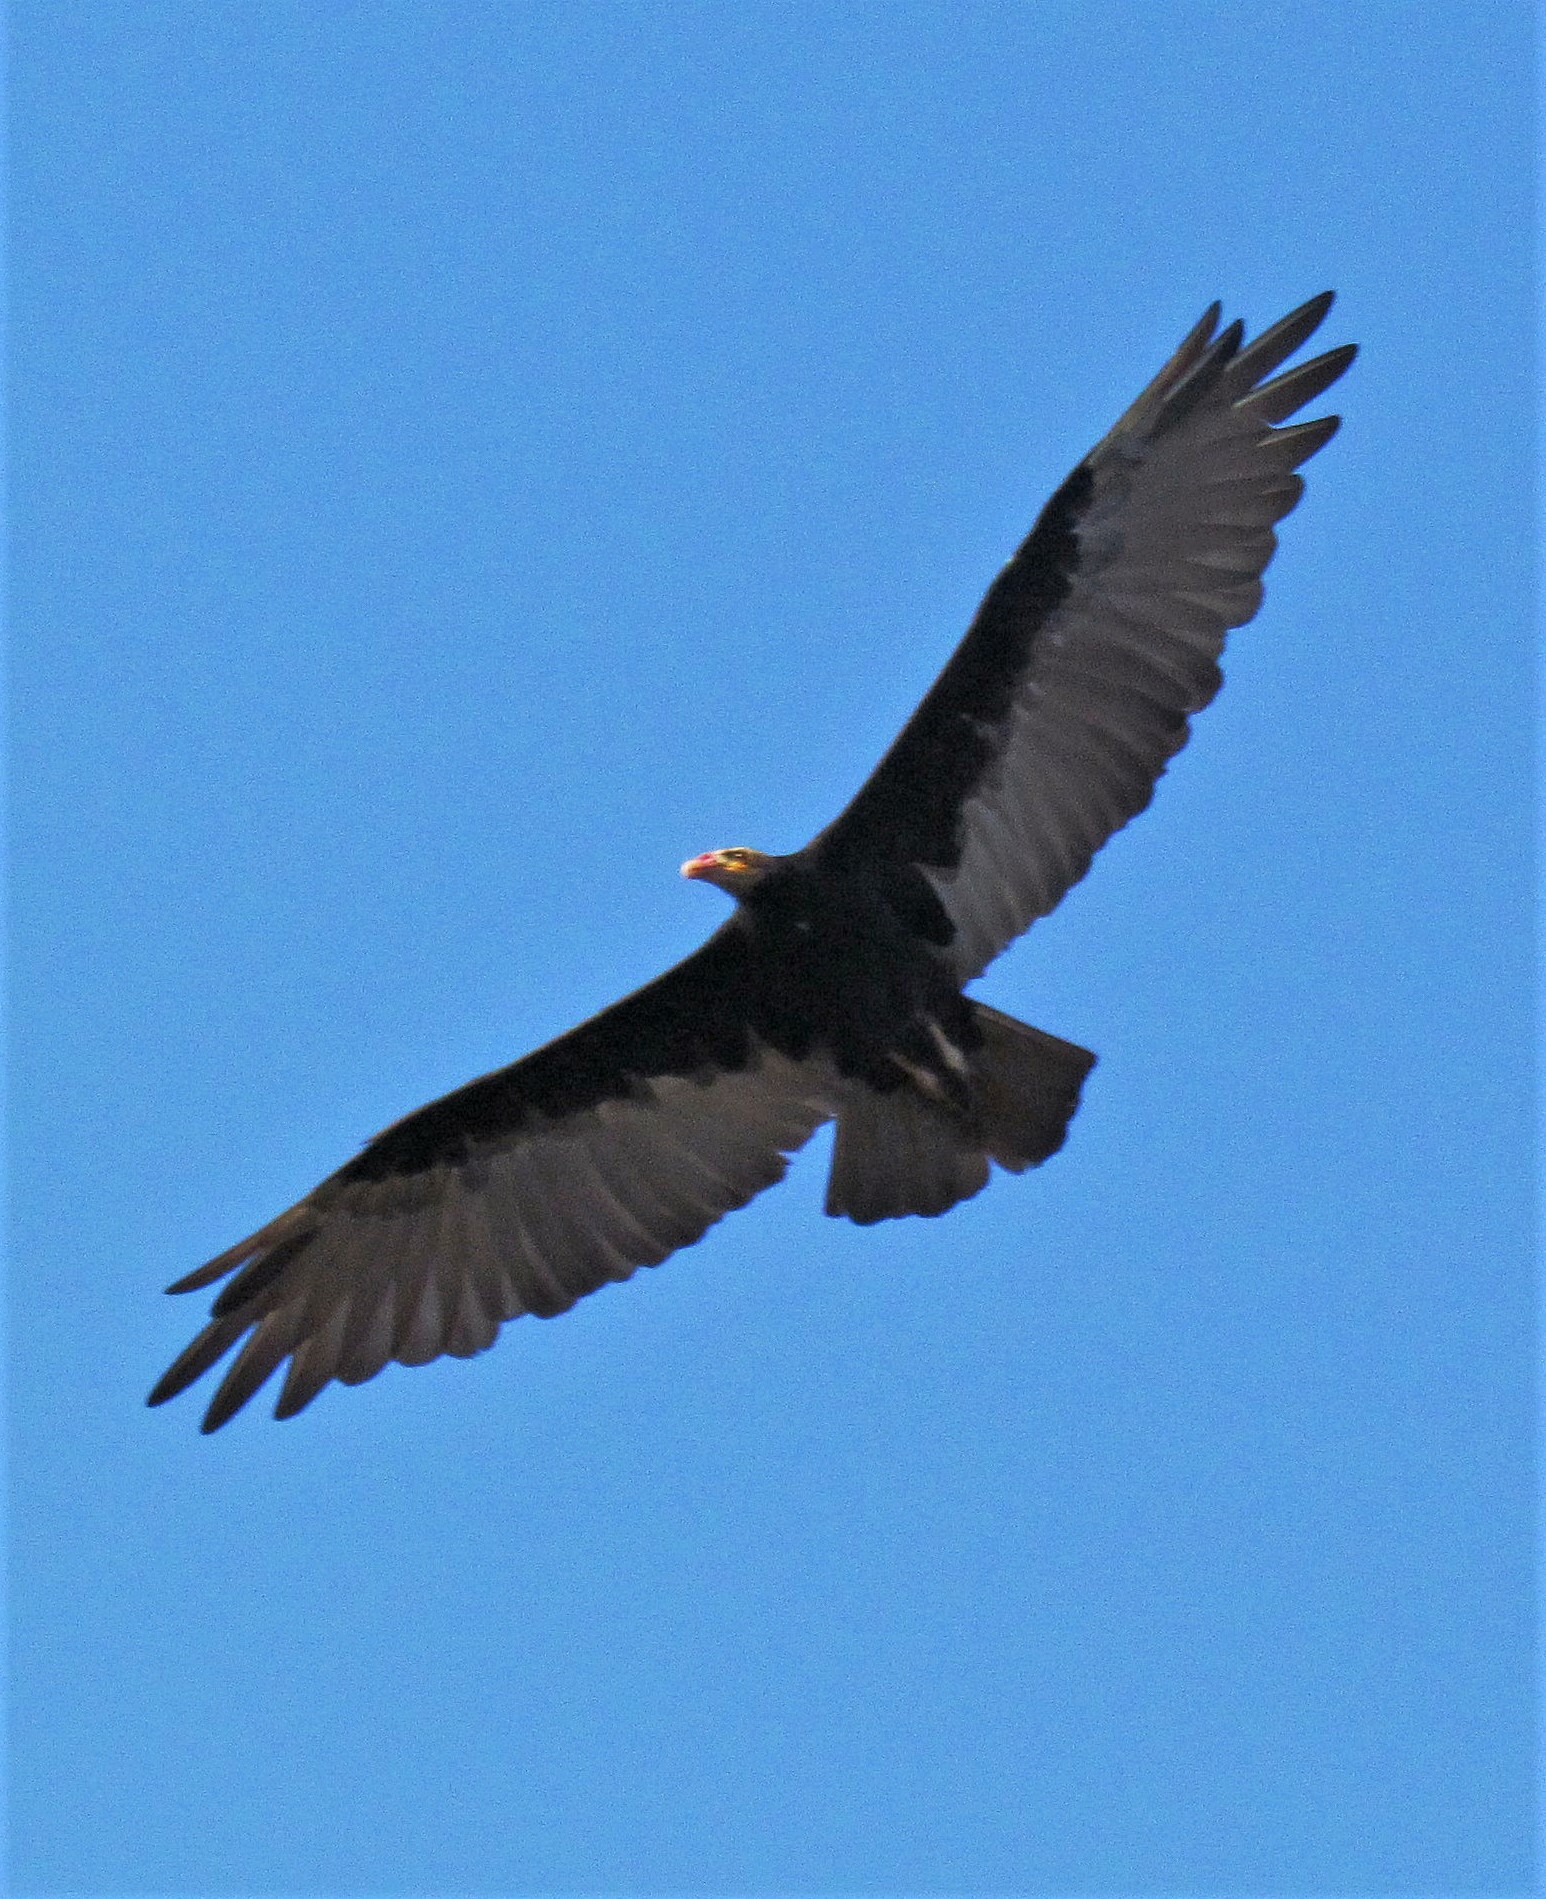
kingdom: Animalia
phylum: Chordata
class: Aves
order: Accipitriformes
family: Cathartidae
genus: Cathartes
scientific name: Cathartes burrovianus
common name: Lesser yellow-headed vulture
